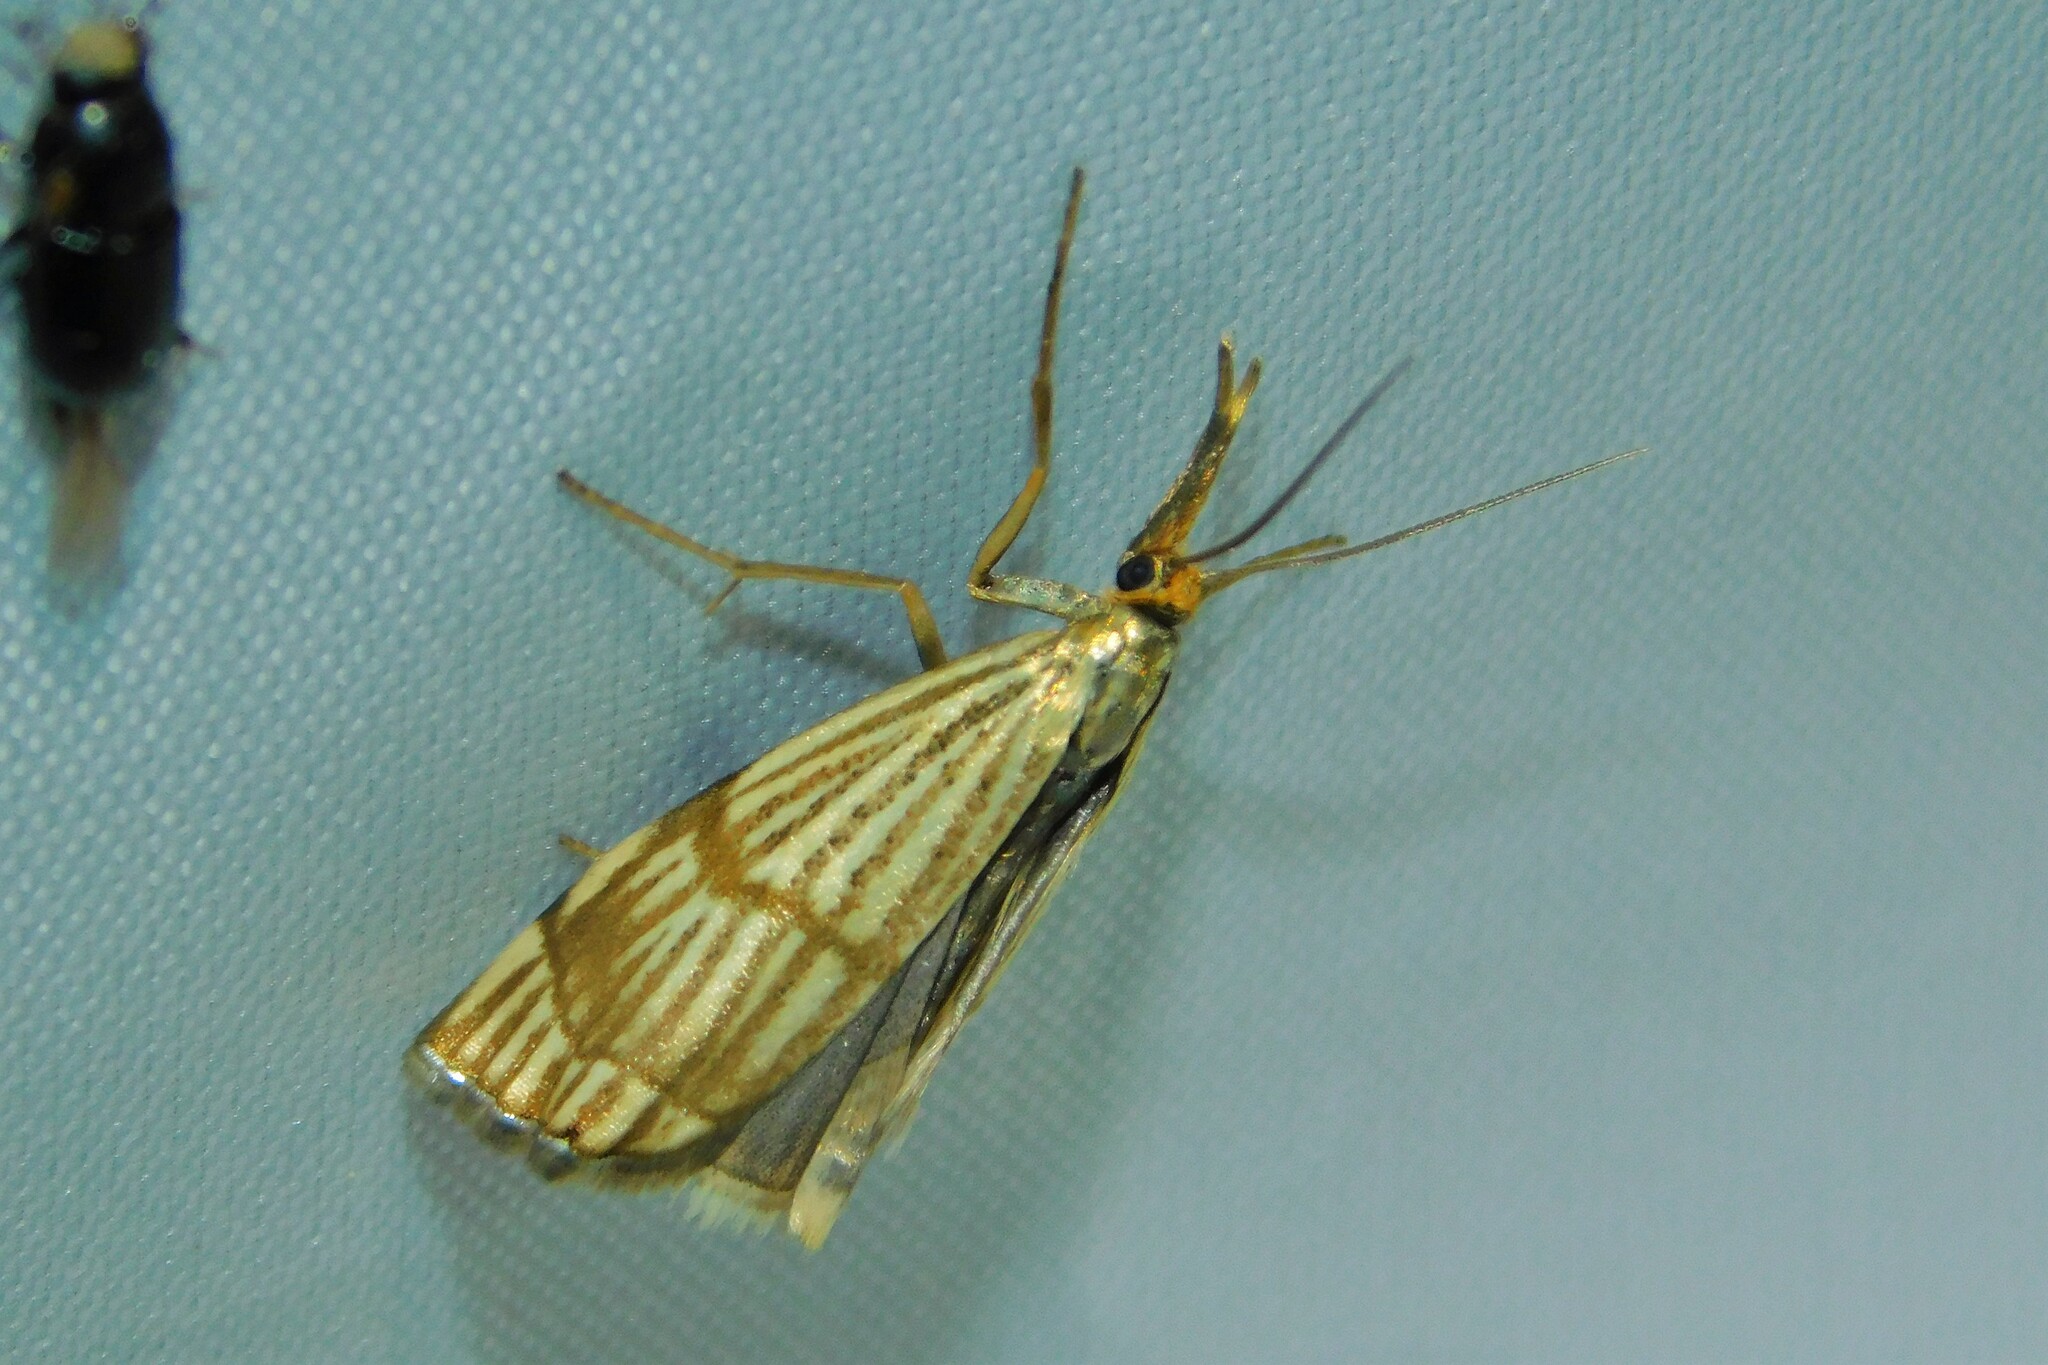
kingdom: Animalia
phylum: Arthropoda
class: Insecta
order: Lepidoptera
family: Crambidae
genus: Chrysocrambus
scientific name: Chrysocrambus linetella
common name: Orange-bar grass-veneer
